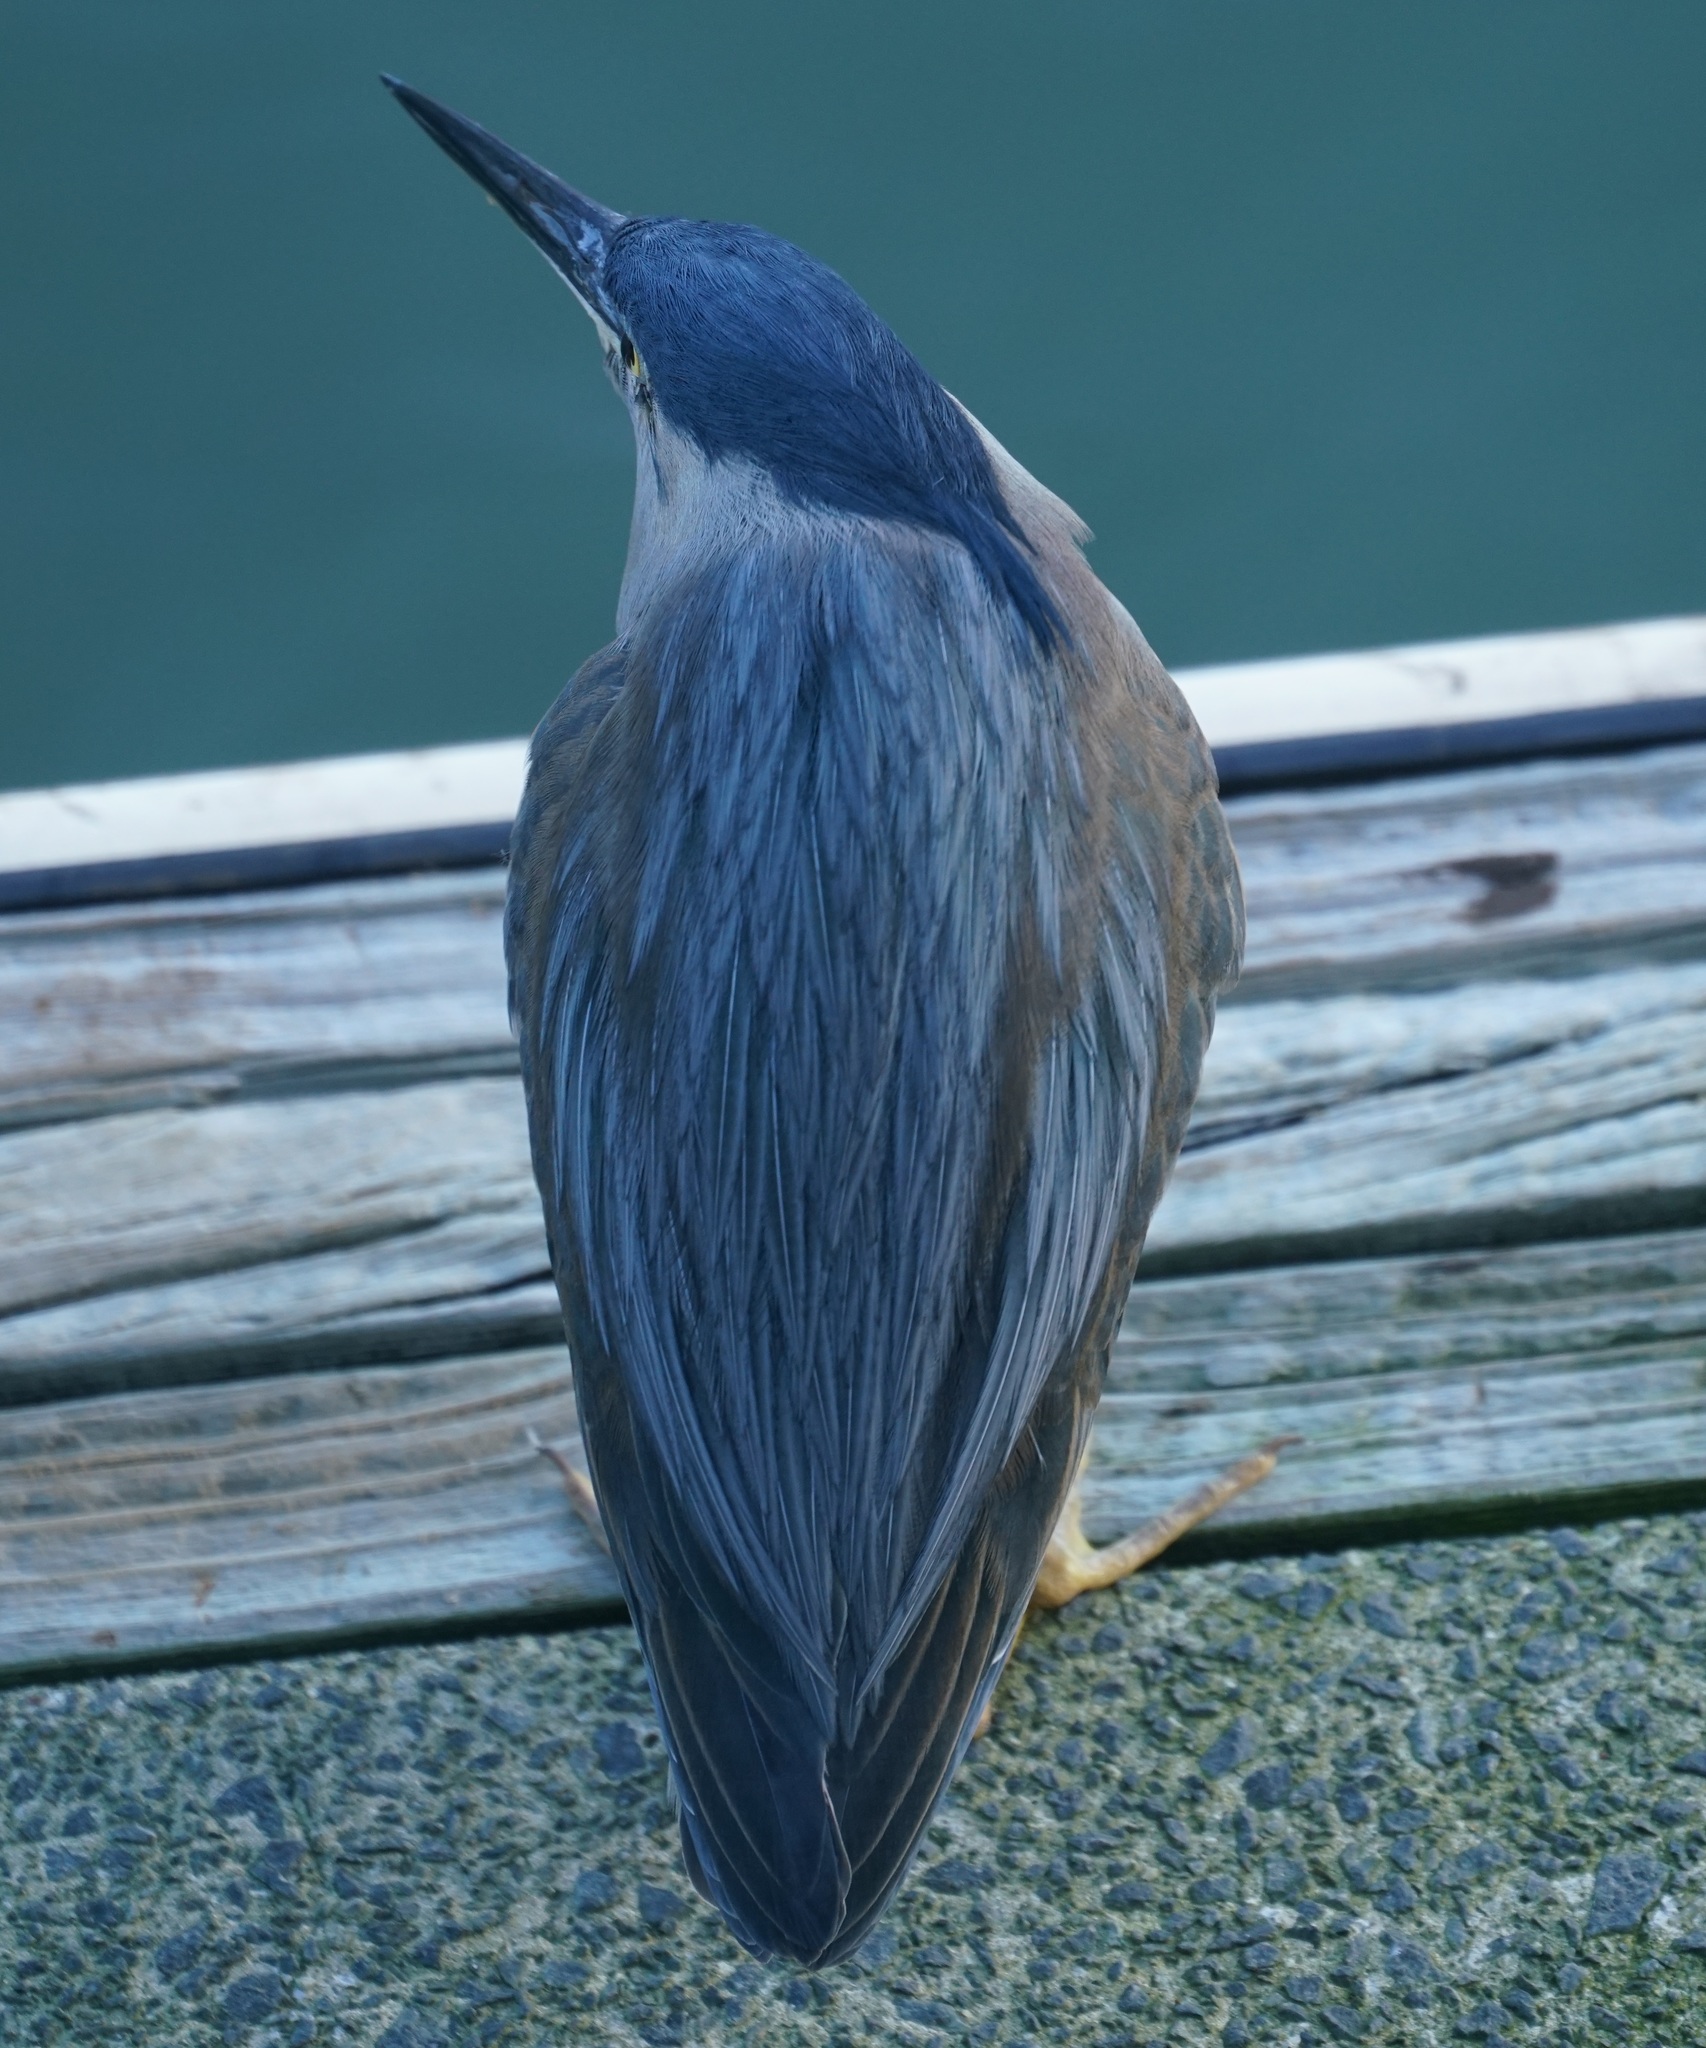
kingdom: Animalia
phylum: Chordata
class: Aves
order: Pelecaniformes
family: Ardeidae
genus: Butorides
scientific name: Butorides striata
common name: Striated heron
